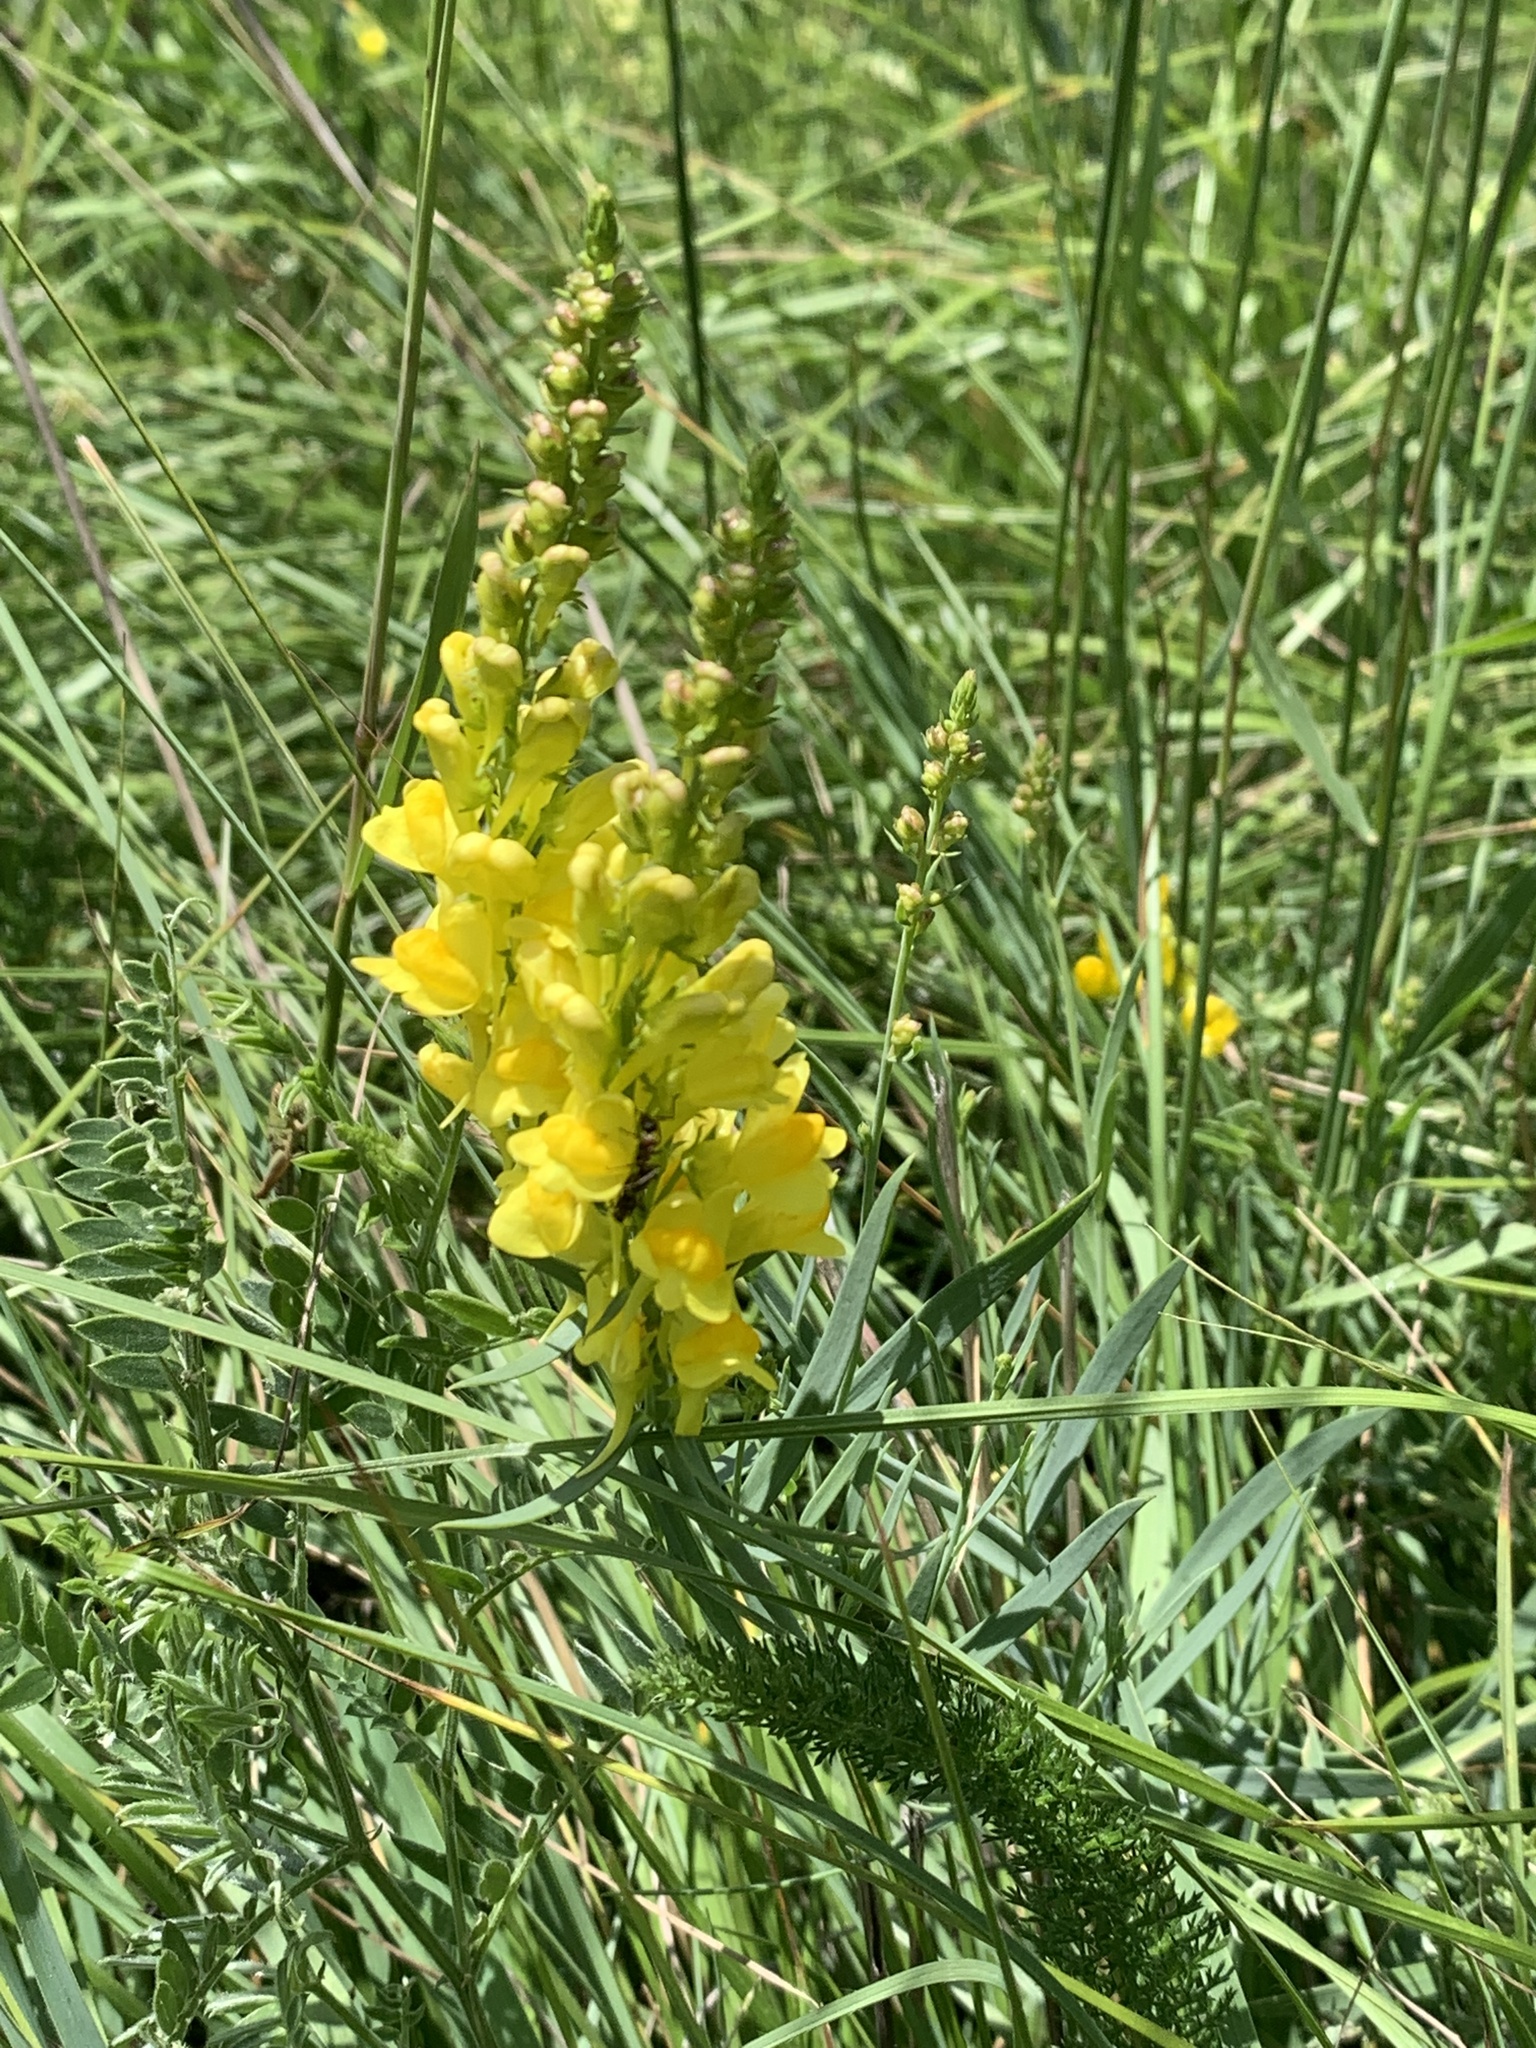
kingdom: Plantae
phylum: Tracheophyta
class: Magnoliopsida
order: Lamiales
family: Plantaginaceae
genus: Linaria
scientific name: Linaria angustissima
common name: Italian toadflax
